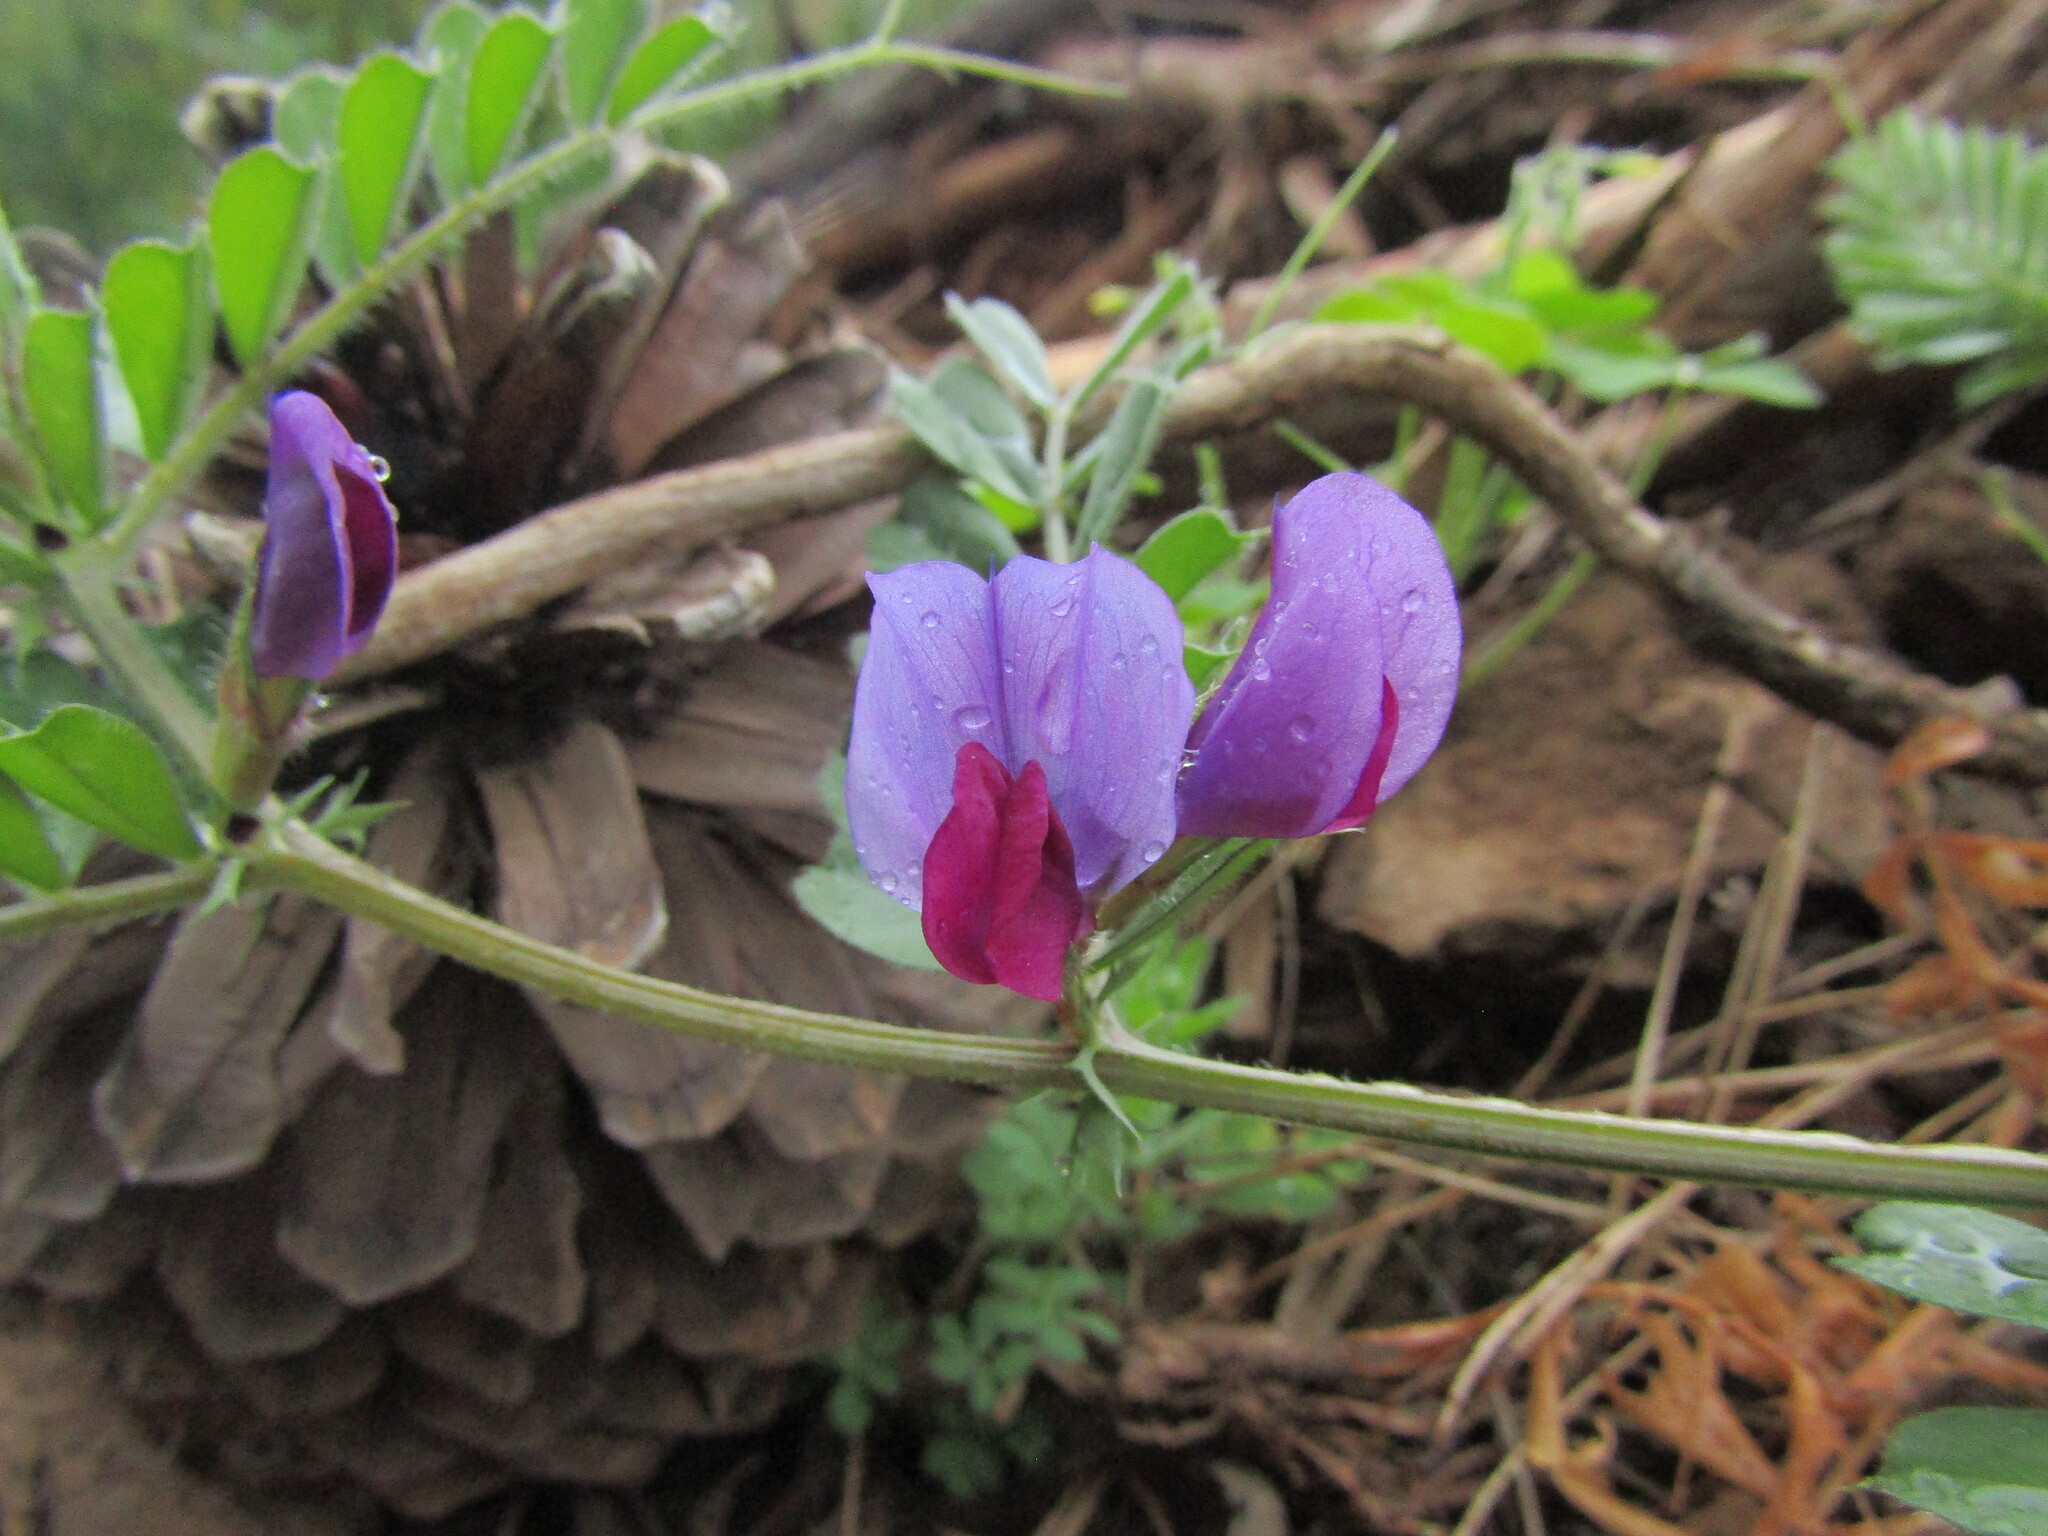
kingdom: Plantae
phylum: Tracheophyta
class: Magnoliopsida
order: Fabales
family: Fabaceae
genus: Vicia
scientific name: Vicia sativa
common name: Garden vetch
